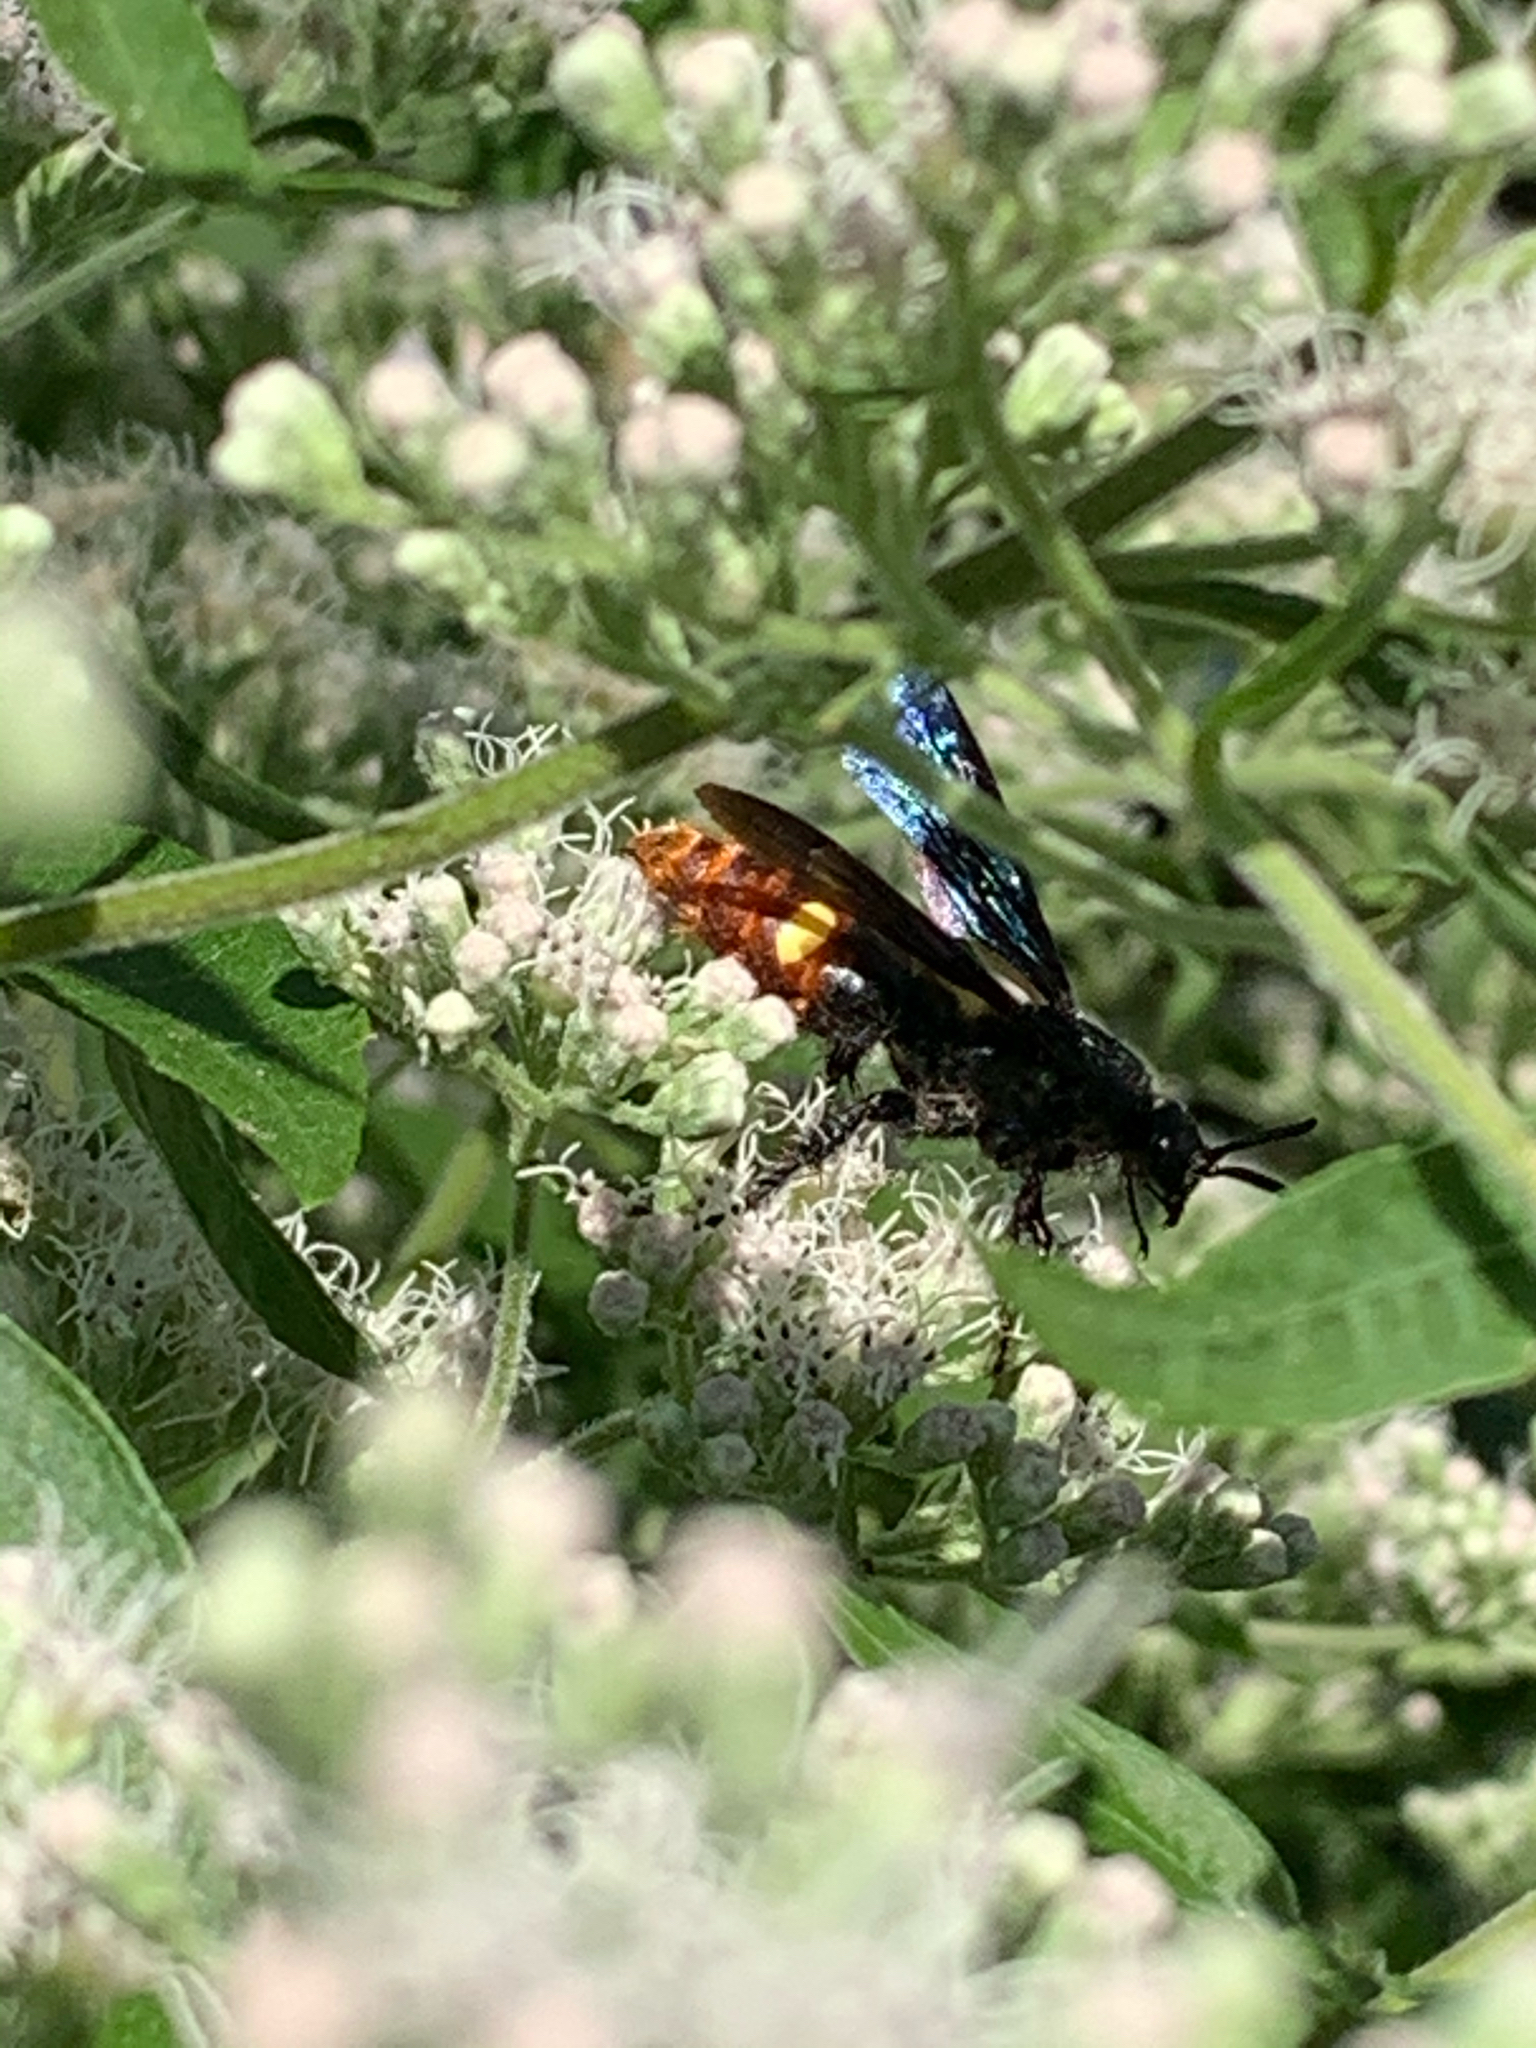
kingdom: Animalia
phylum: Arthropoda
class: Insecta
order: Hymenoptera
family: Scoliidae
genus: Scolia
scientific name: Scolia dubia
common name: Blue-winged scoliid wasp
